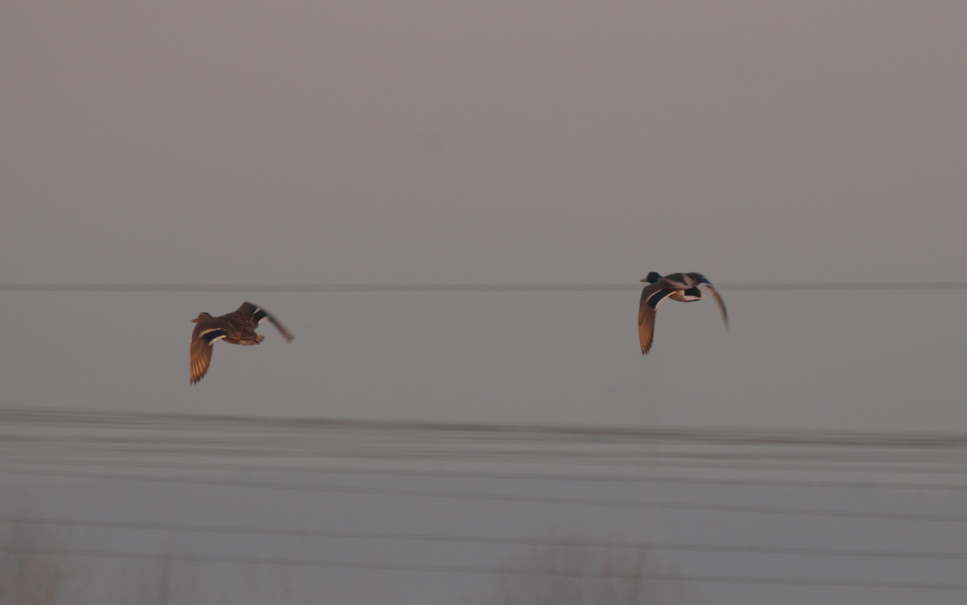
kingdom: Animalia
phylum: Chordata
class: Aves
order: Anseriformes
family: Anatidae
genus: Anas
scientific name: Anas platyrhynchos
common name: Mallard
